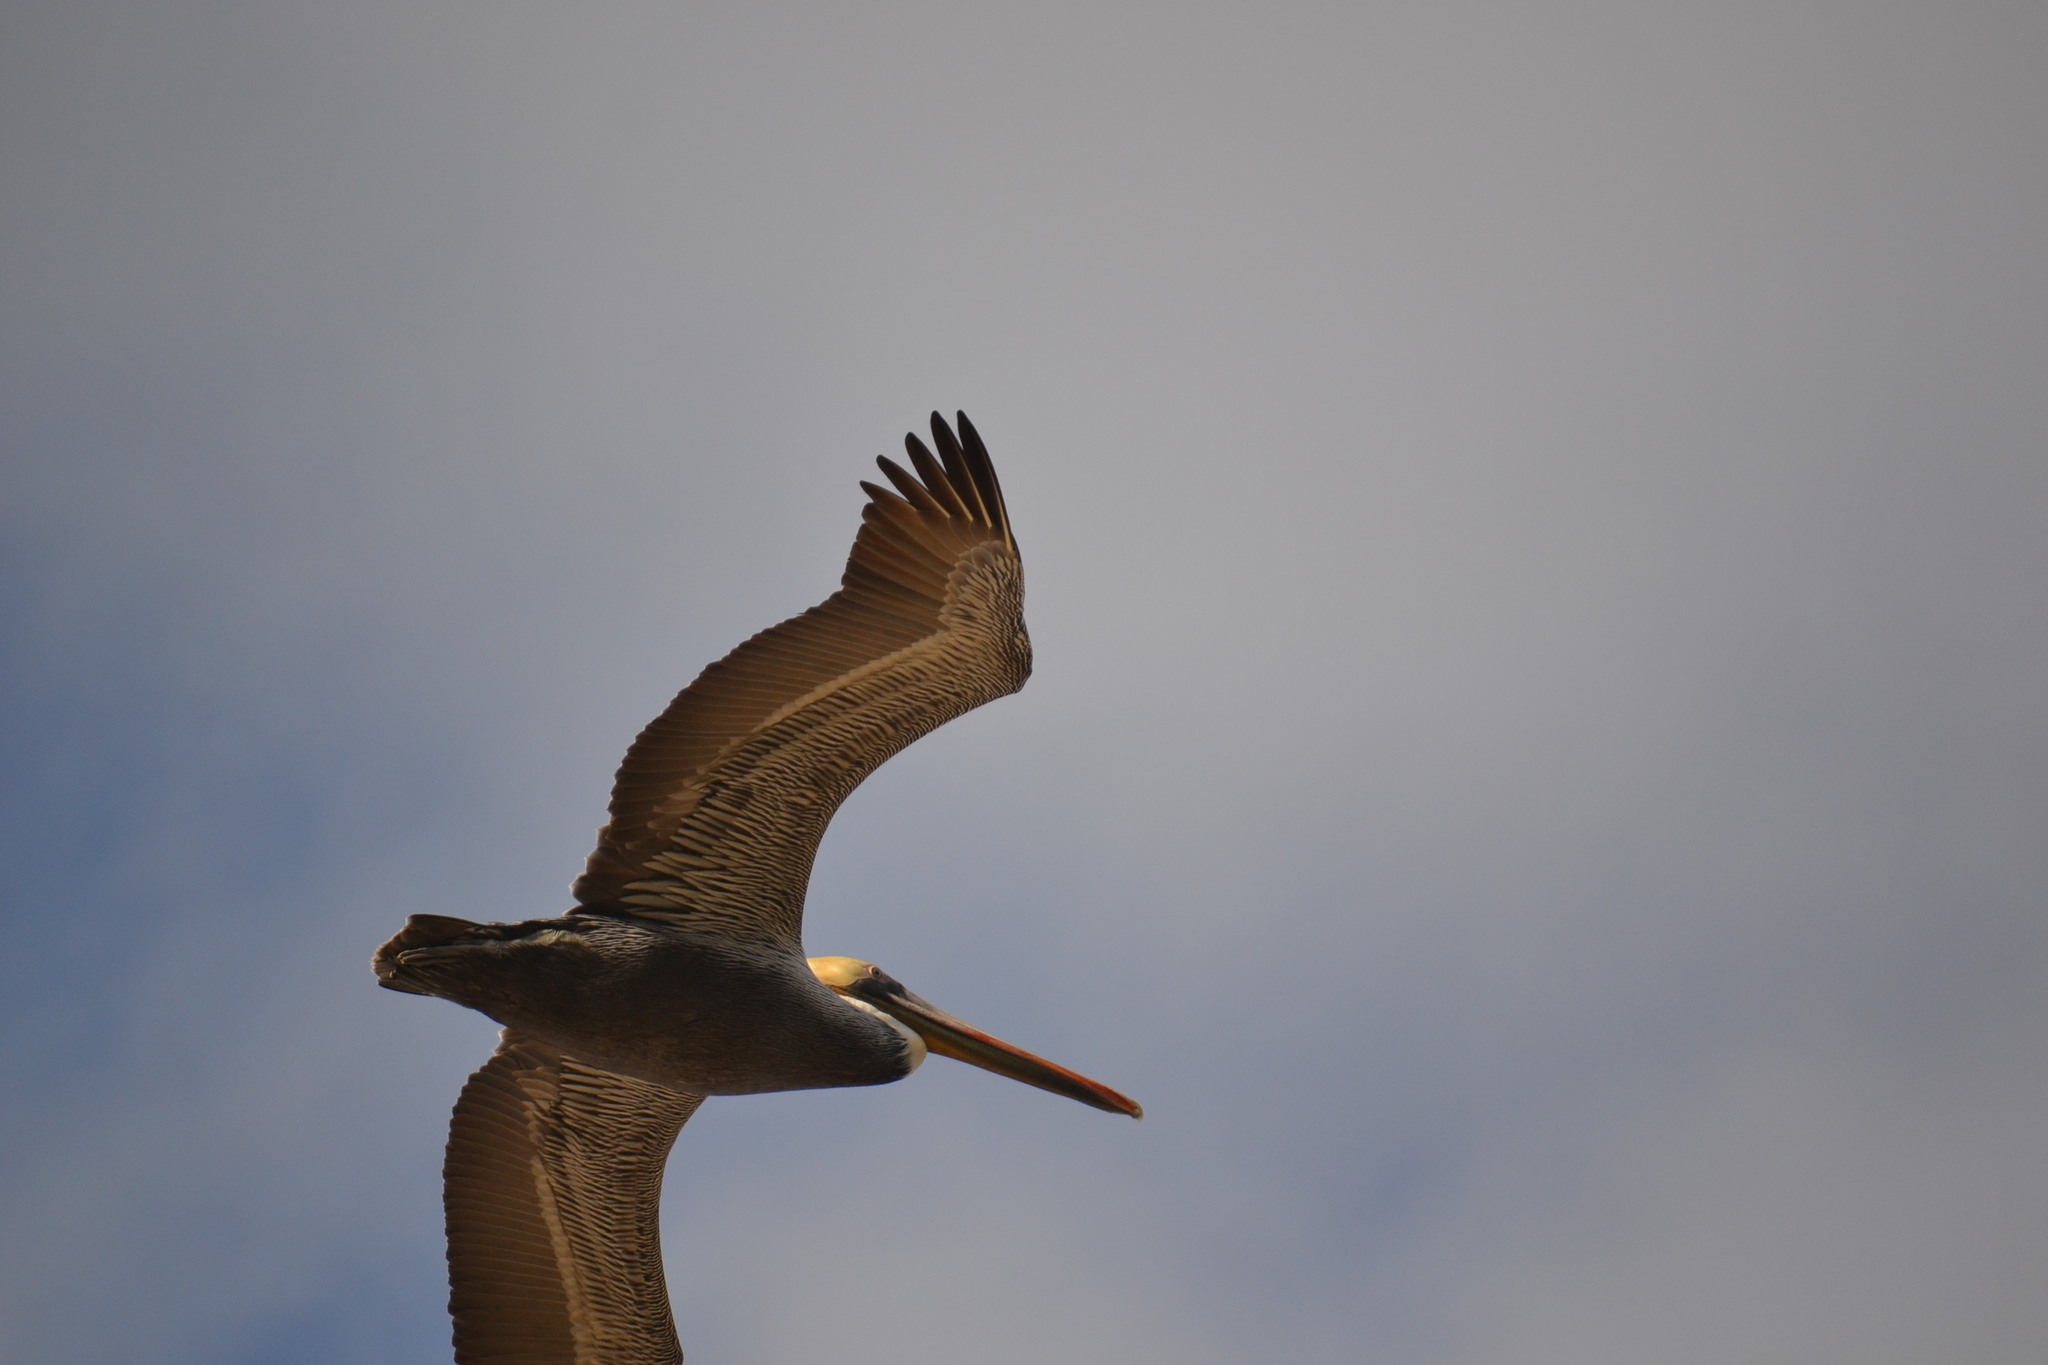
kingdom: Animalia
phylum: Chordata
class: Aves
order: Pelecaniformes
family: Pelecanidae
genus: Pelecanus
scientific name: Pelecanus occidentalis
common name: Brown pelican
